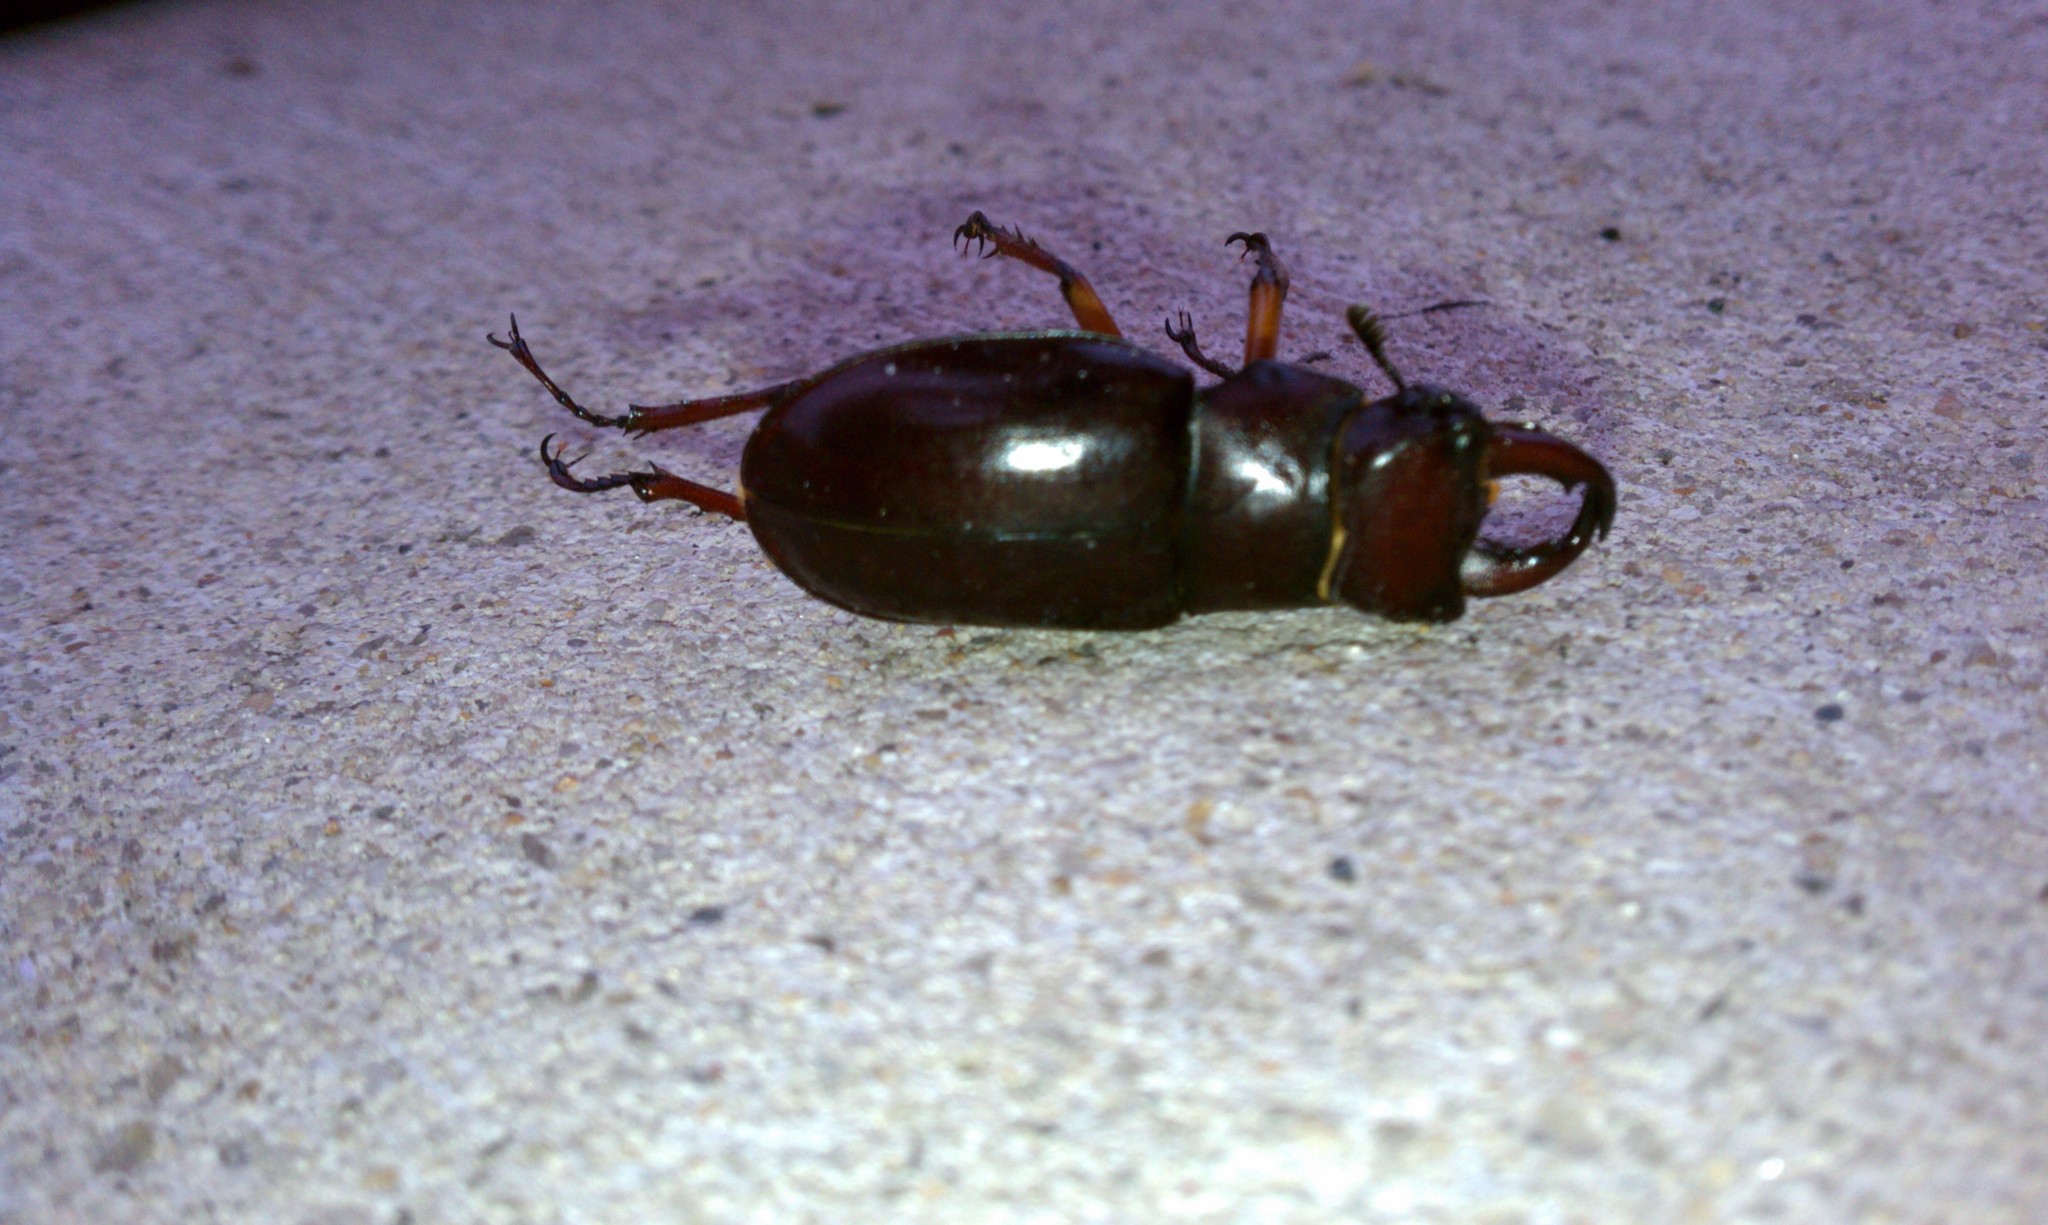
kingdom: Animalia
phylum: Arthropoda
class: Insecta
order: Coleoptera
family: Lucanidae
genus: Lucanus
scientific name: Lucanus capreolus
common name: Stag beetle
